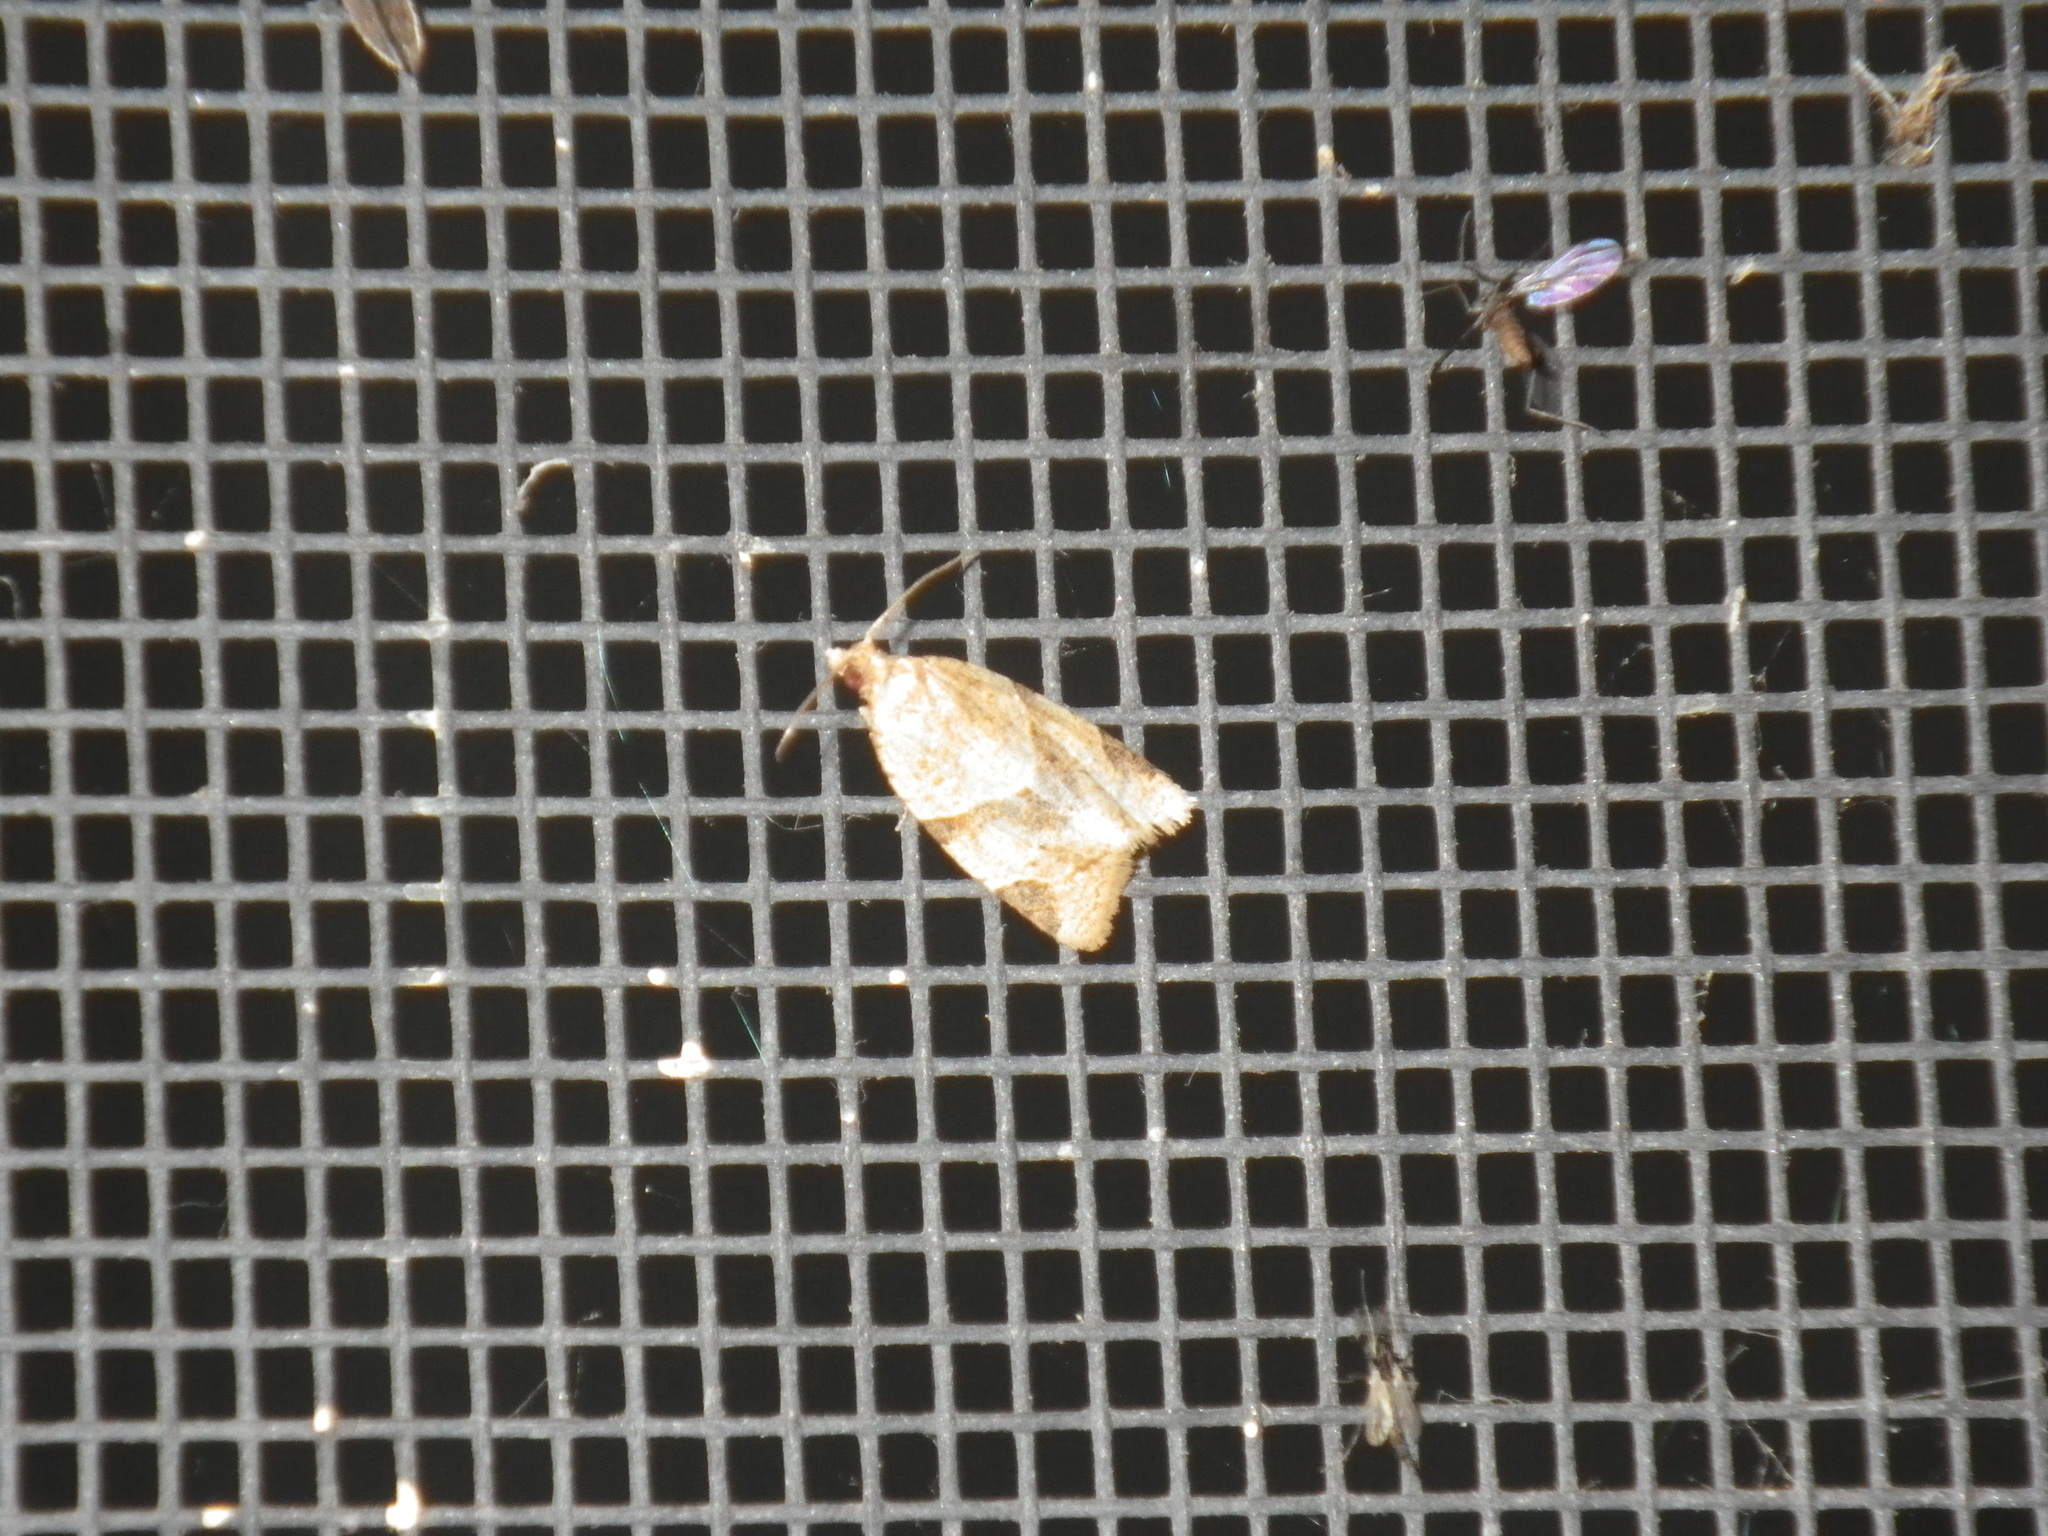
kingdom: Animalia
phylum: Arthropoda
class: Insecta
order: Lepidoptera
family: Tortricidae
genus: Clepsis
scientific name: Clepsis peritana
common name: Garden tortrix
